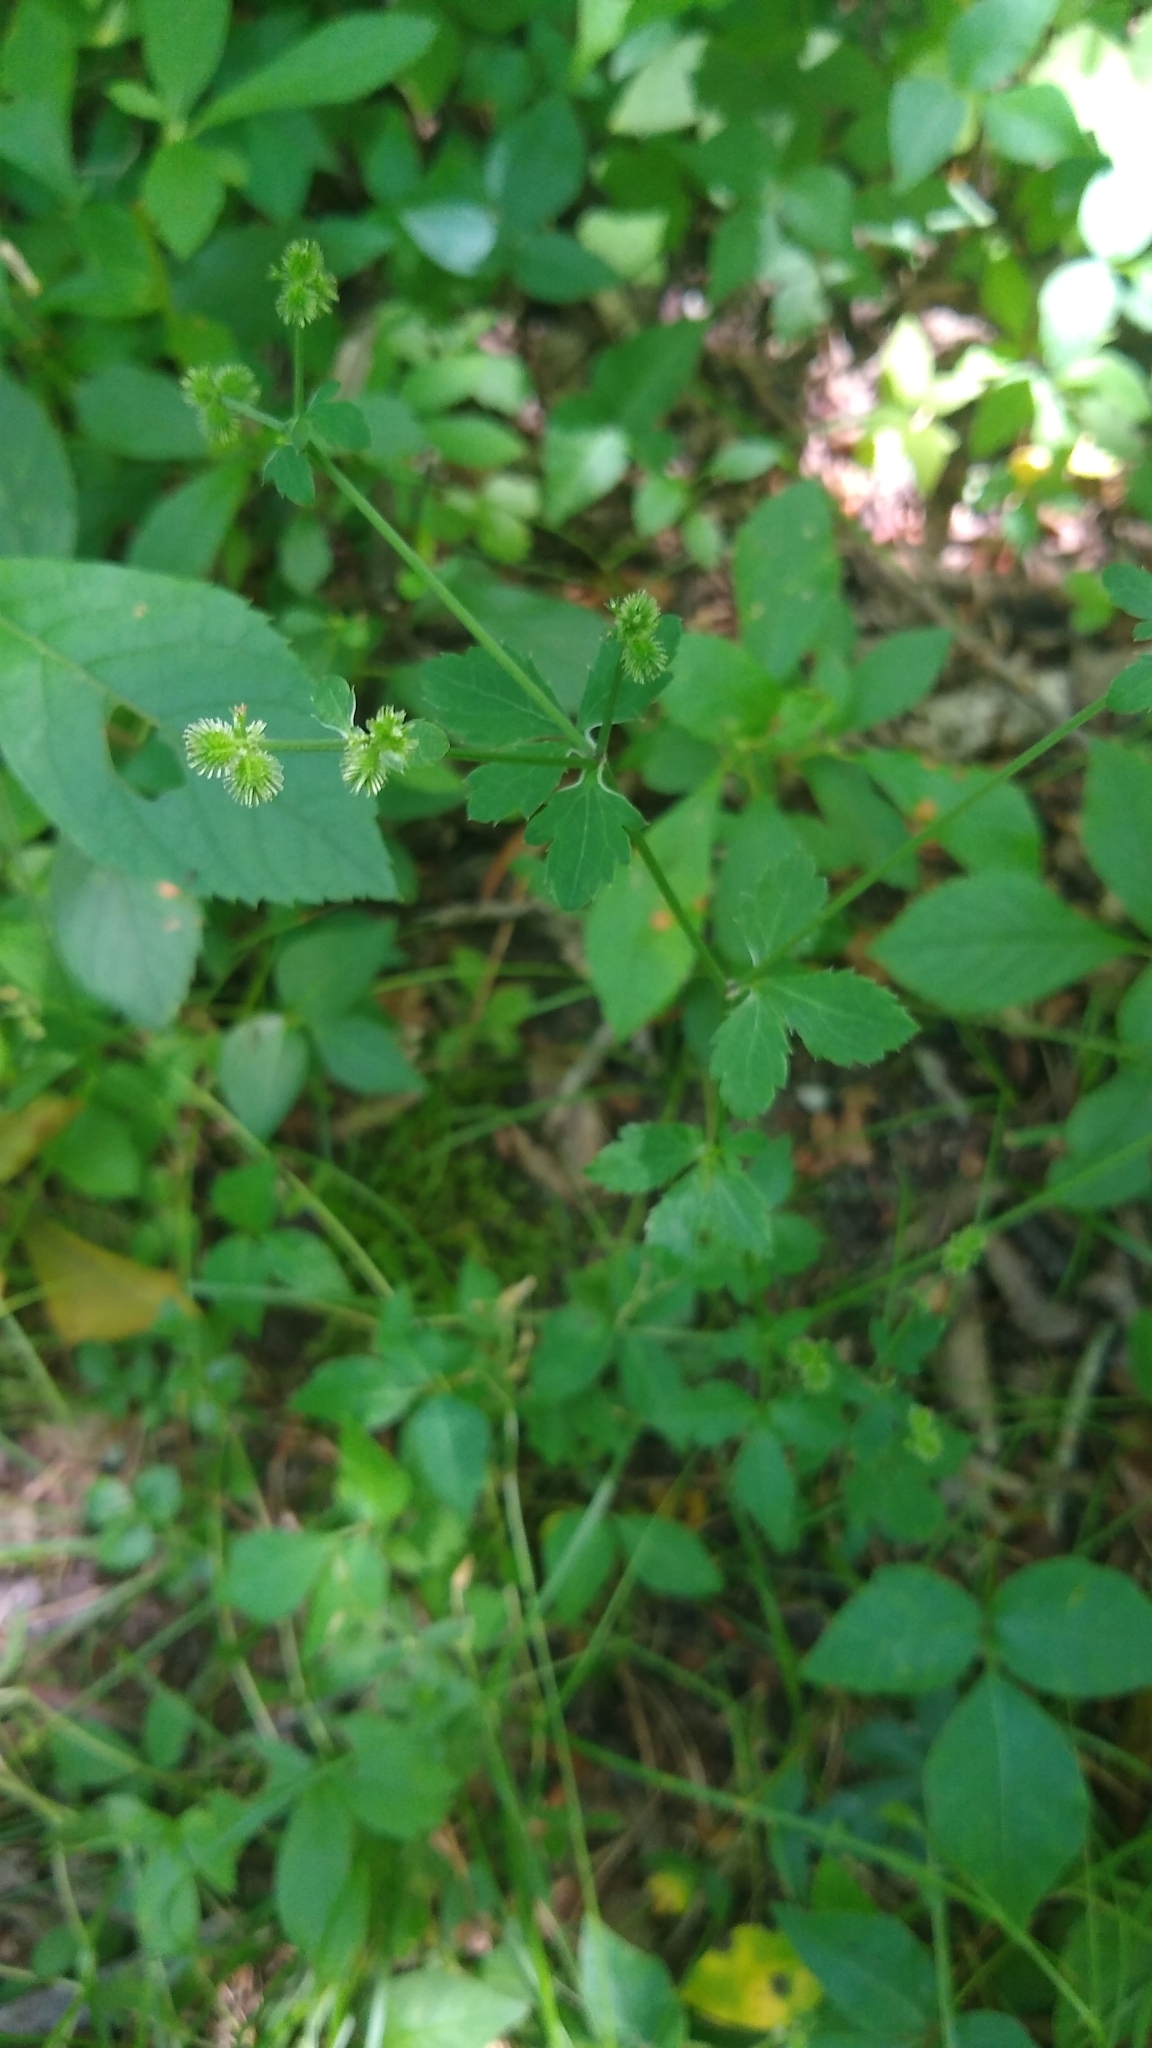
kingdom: Plantae
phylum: Tracheophyta
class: Magnoliopsida
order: Apiales
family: Apiaceae
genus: Sanicula
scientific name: Sanicula canadensis
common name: Canada sanicle
